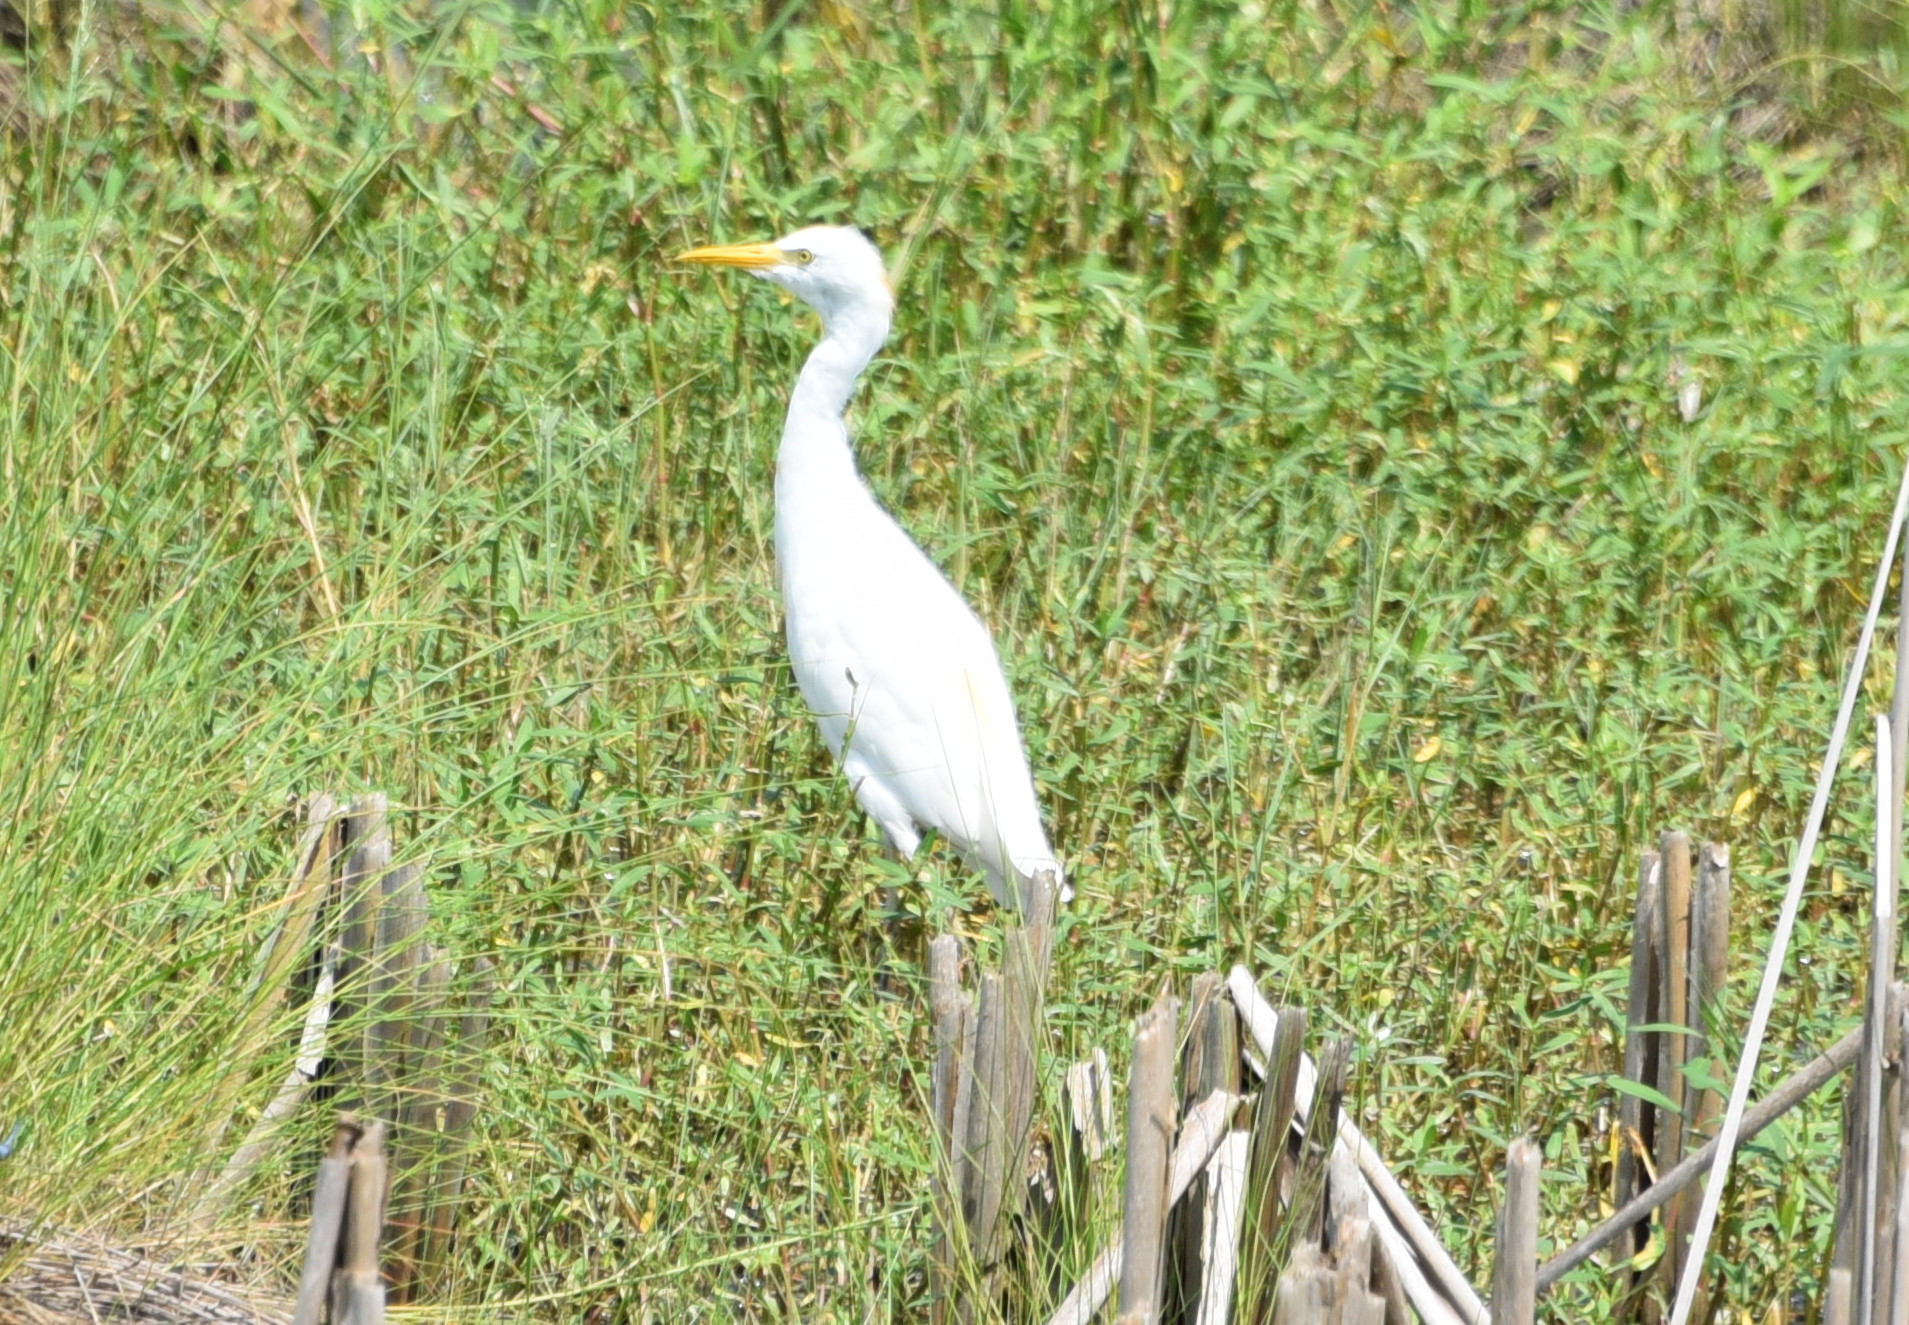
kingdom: Animalia
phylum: Chordata
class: Aves
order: Pelecaniformes
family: Ardeidae
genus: Bubulcus
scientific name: Bubulcus ibis
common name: Cattle egret
